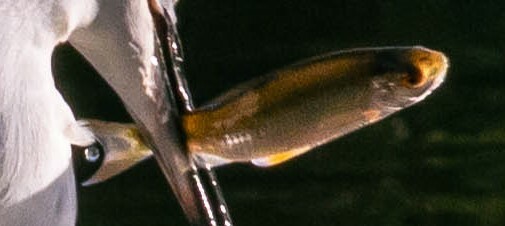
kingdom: Animalia
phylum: Chordata
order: Cypriniformes
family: Cyprinidae
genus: Rutilus
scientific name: Rutilus rutilus
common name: Roach
